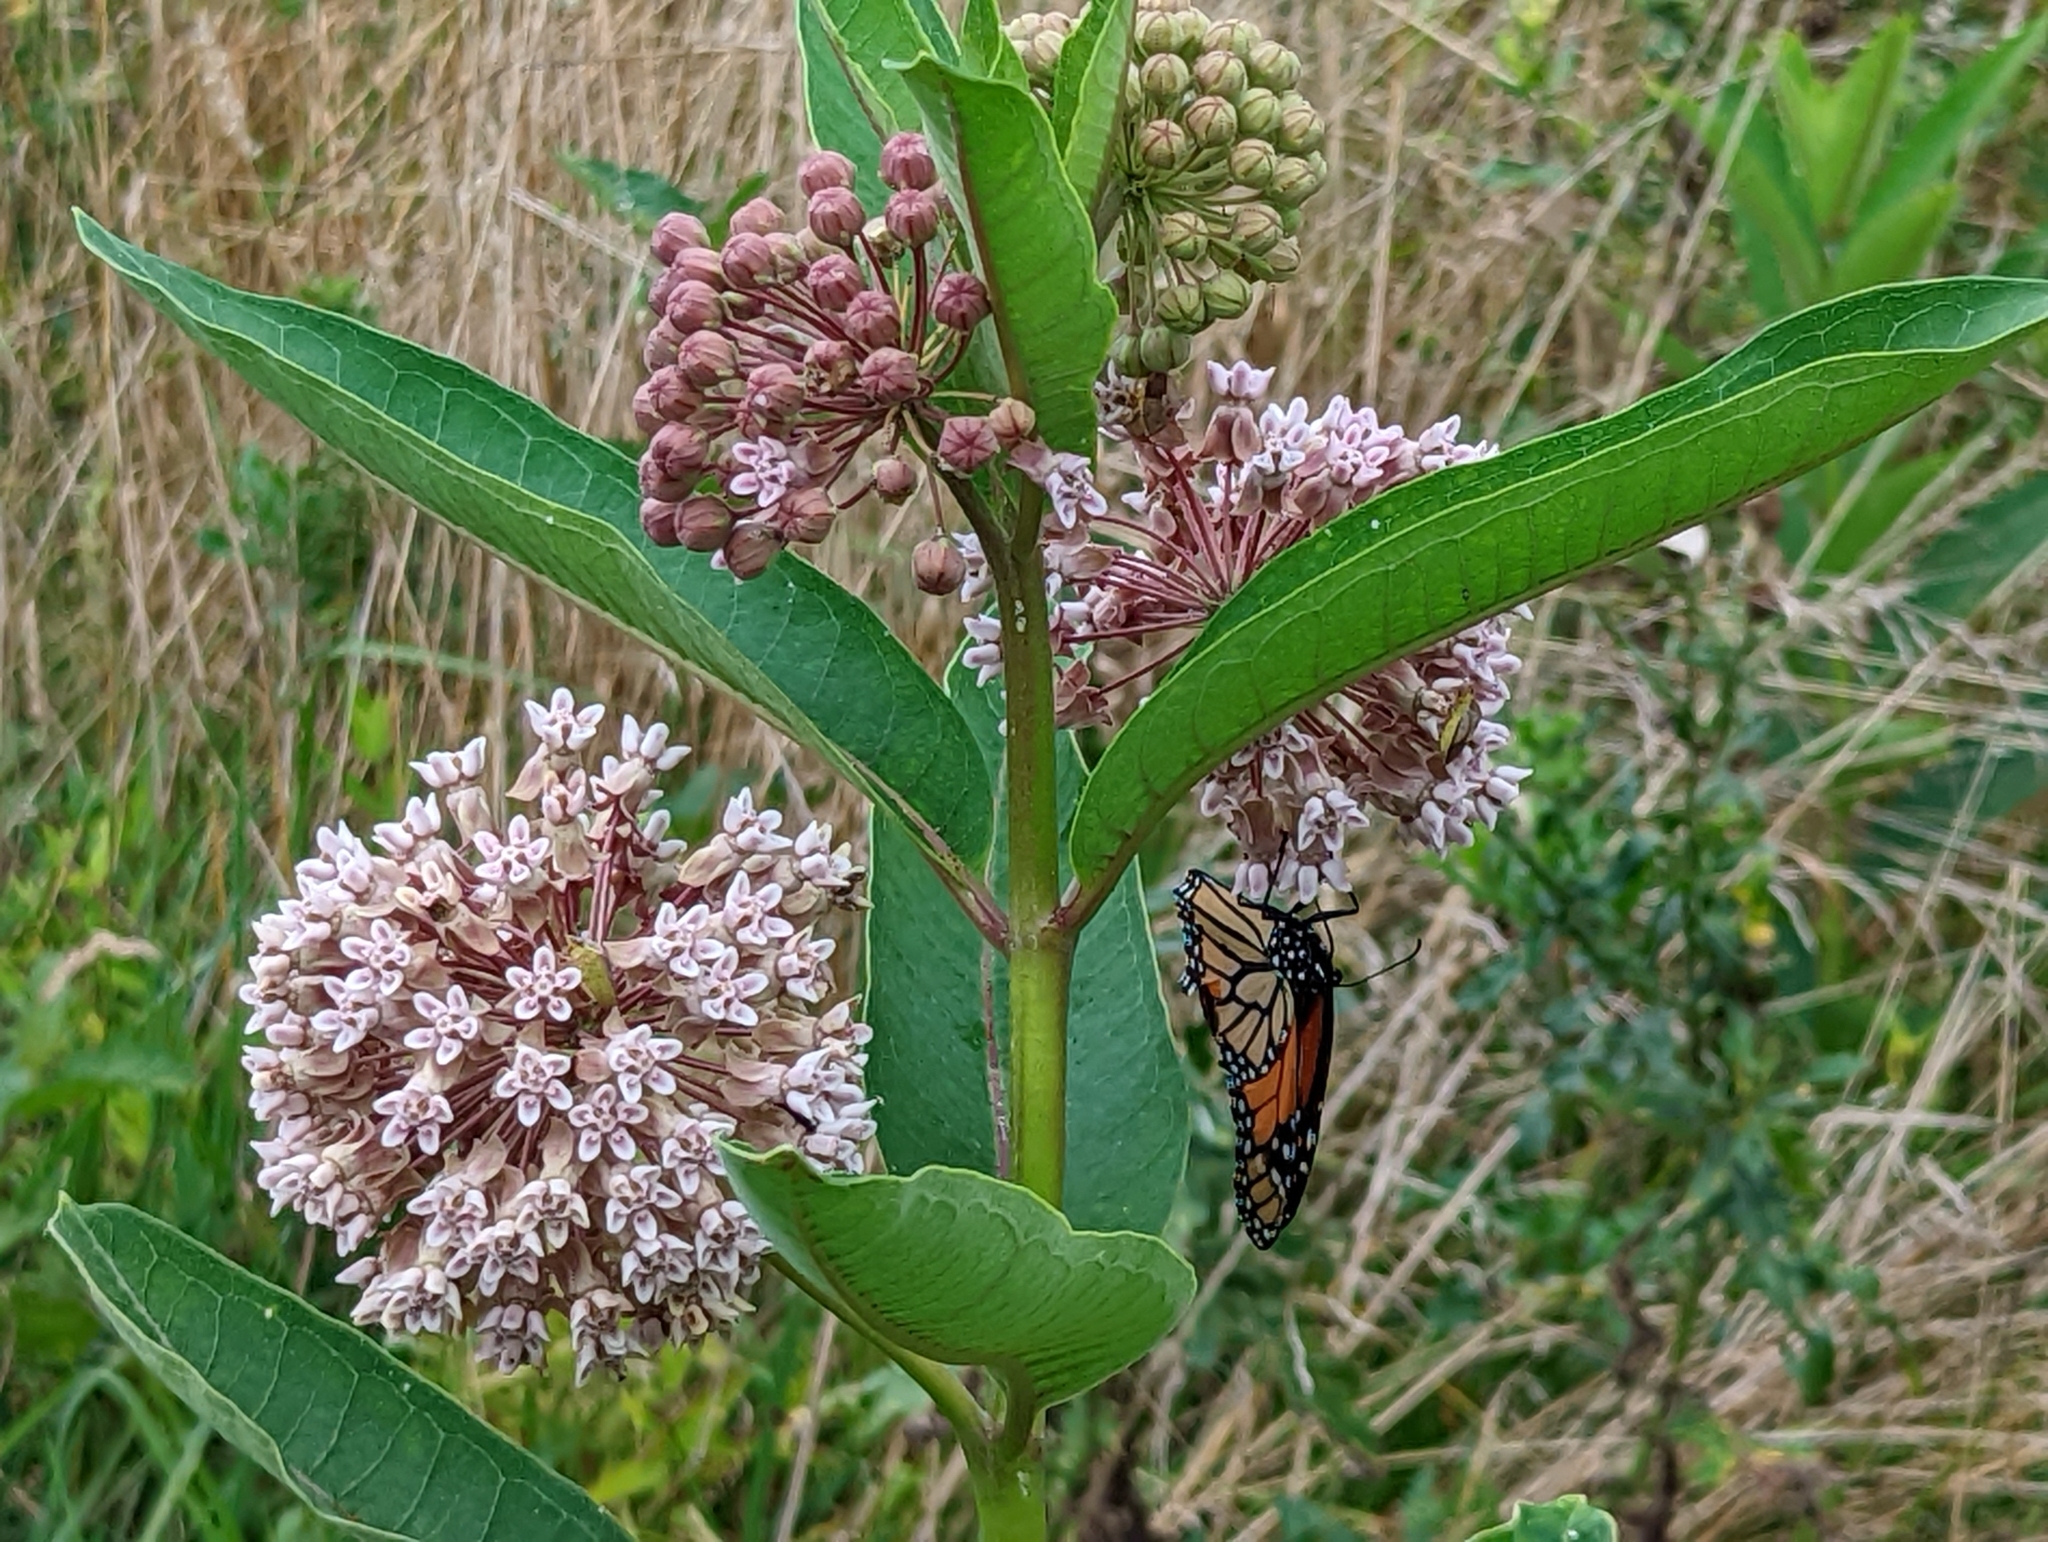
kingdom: Plantae
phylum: Tracheophyta
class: Magnoliopsida
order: Gentianales
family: Apocynaceae
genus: Asclepias
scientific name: Asclepias syriaca
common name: Common milkweed
